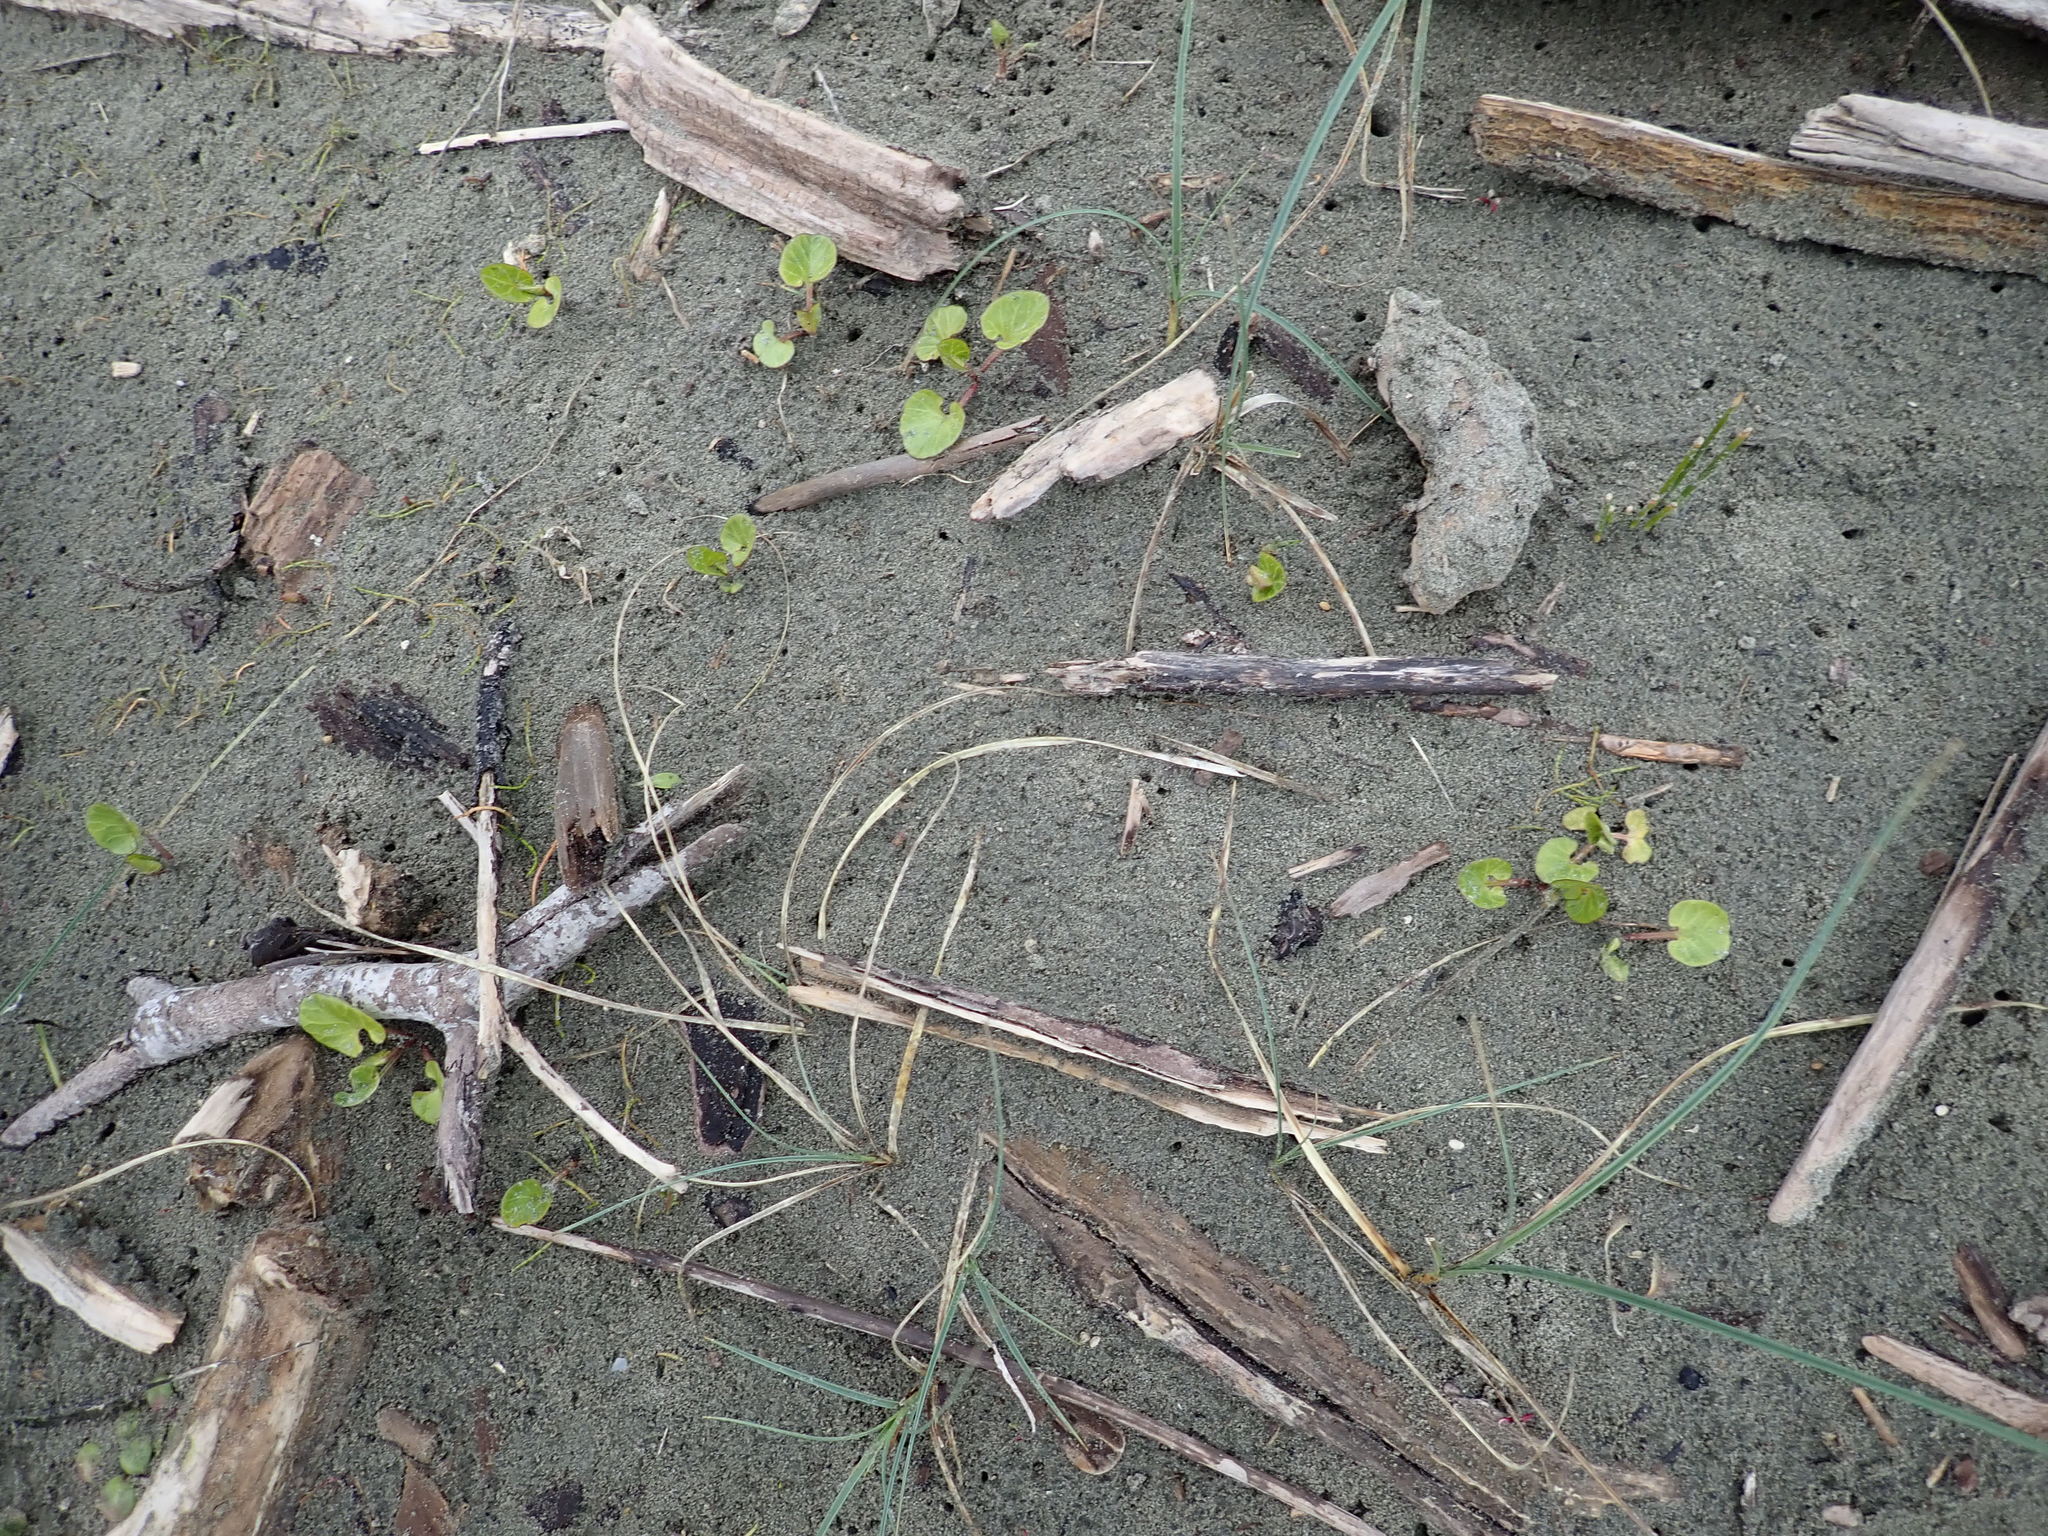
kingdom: Plantae
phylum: Tracheophyta
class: Magnoliopsida
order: Solanales
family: Convolvulaceae
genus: Calystegia
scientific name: Calystegia soldanella
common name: Sea bindweed
